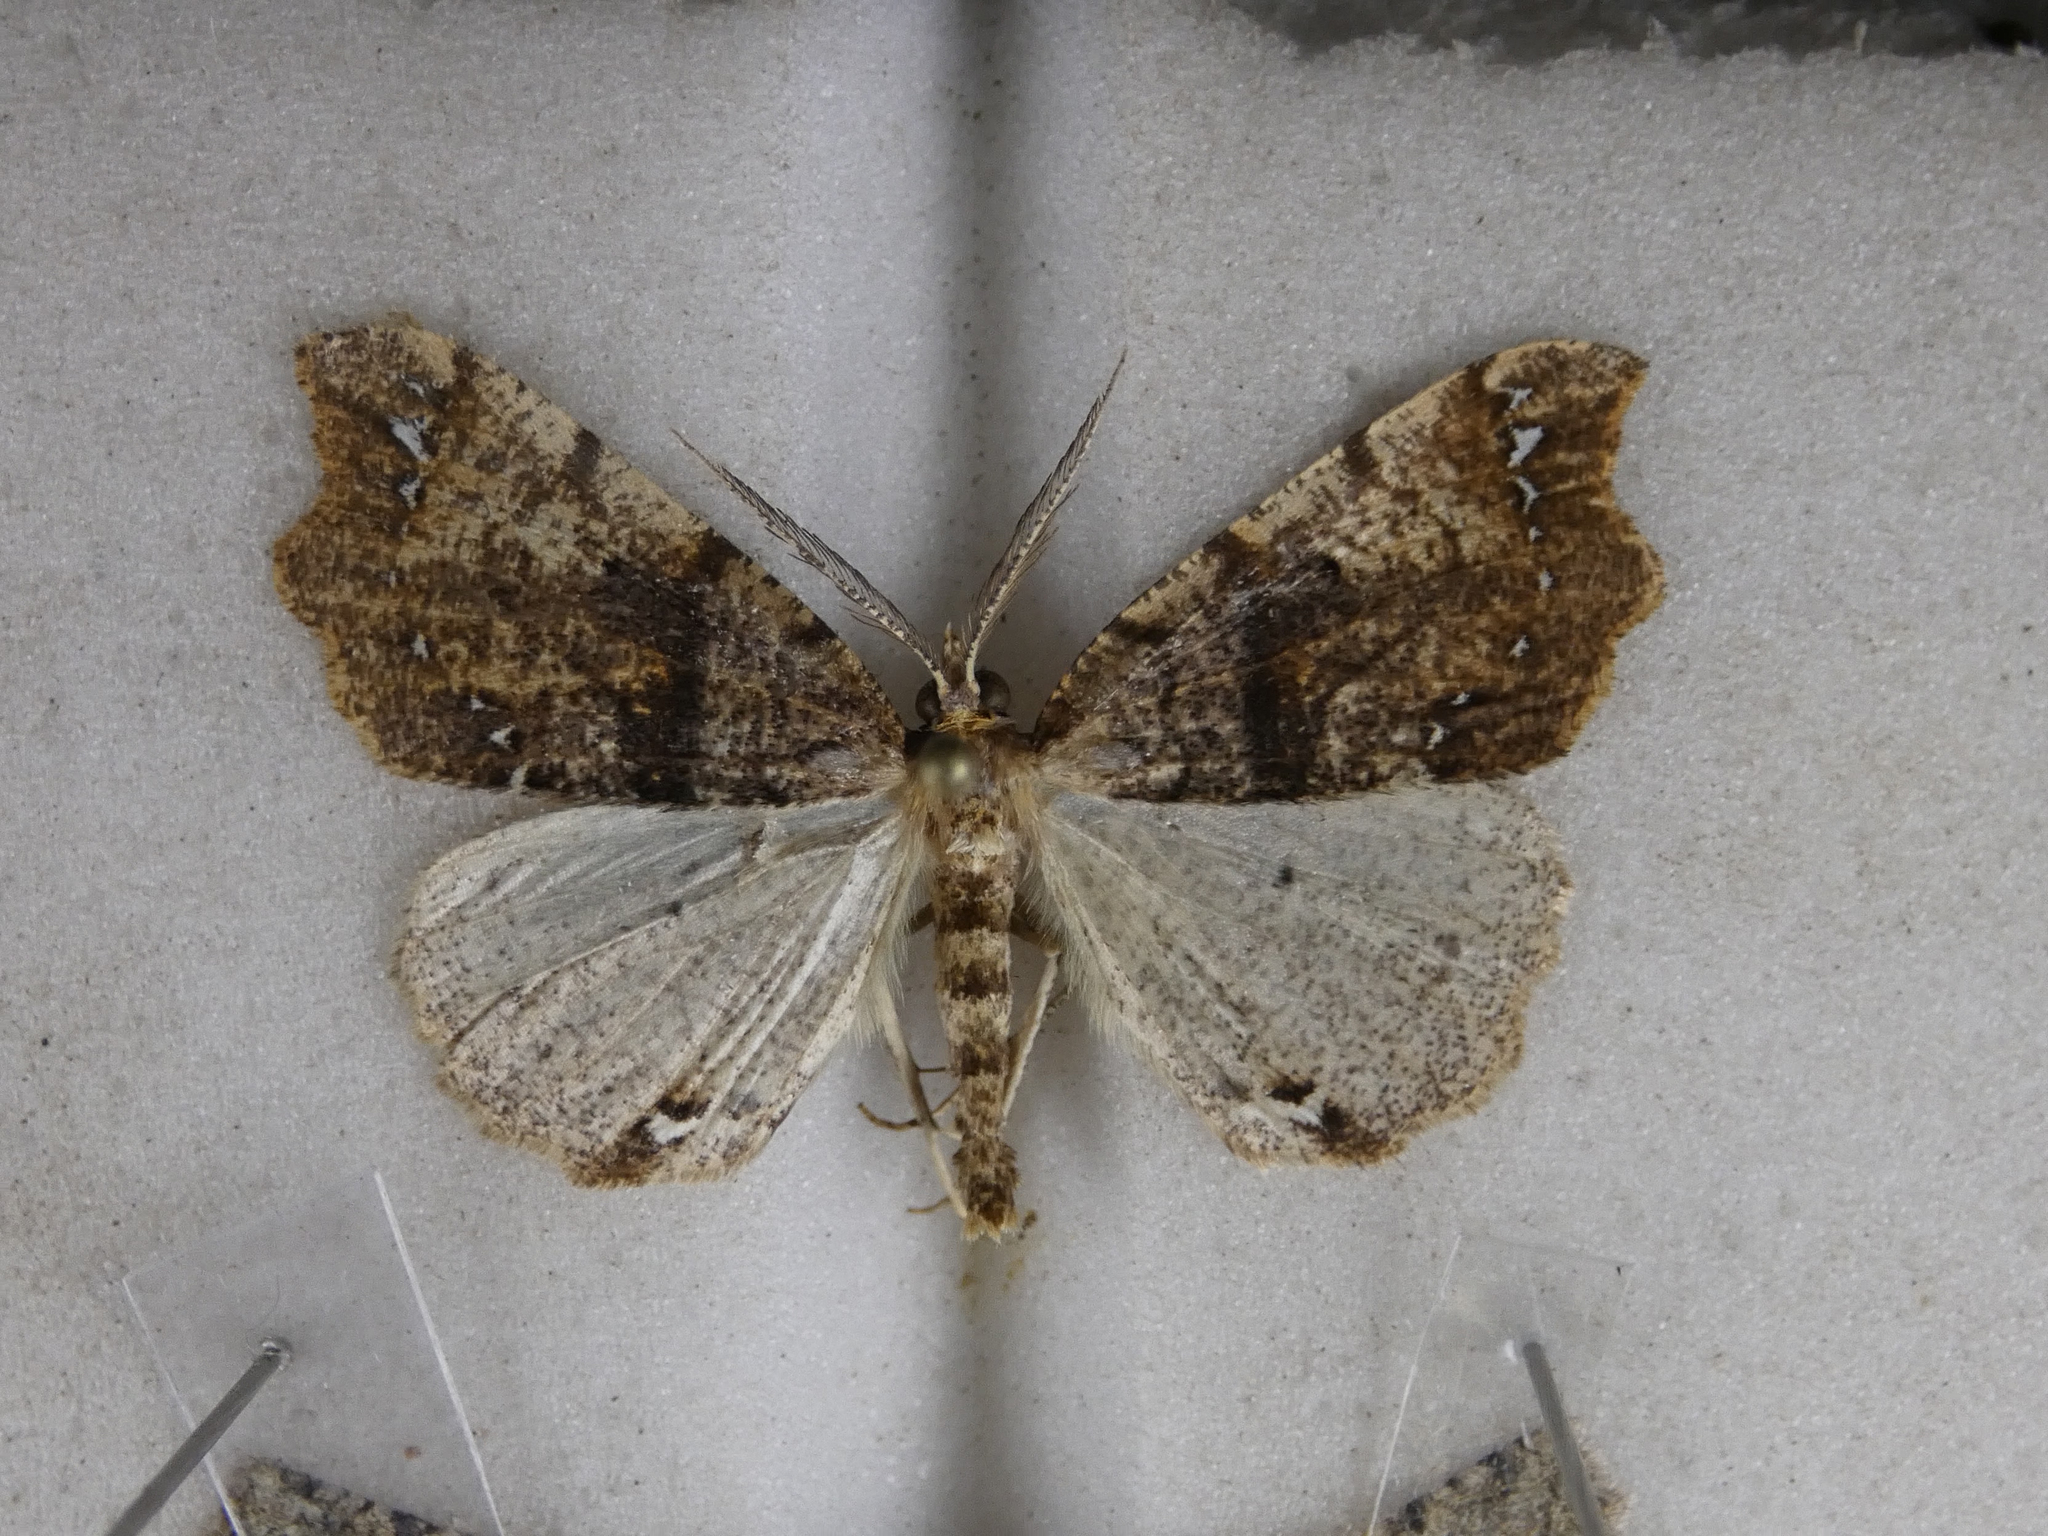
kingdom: Animalia
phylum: Arthropoda
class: Insecta
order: Lepidoptera
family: Geometridae
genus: Chalastra
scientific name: Chalastra pellurgata
